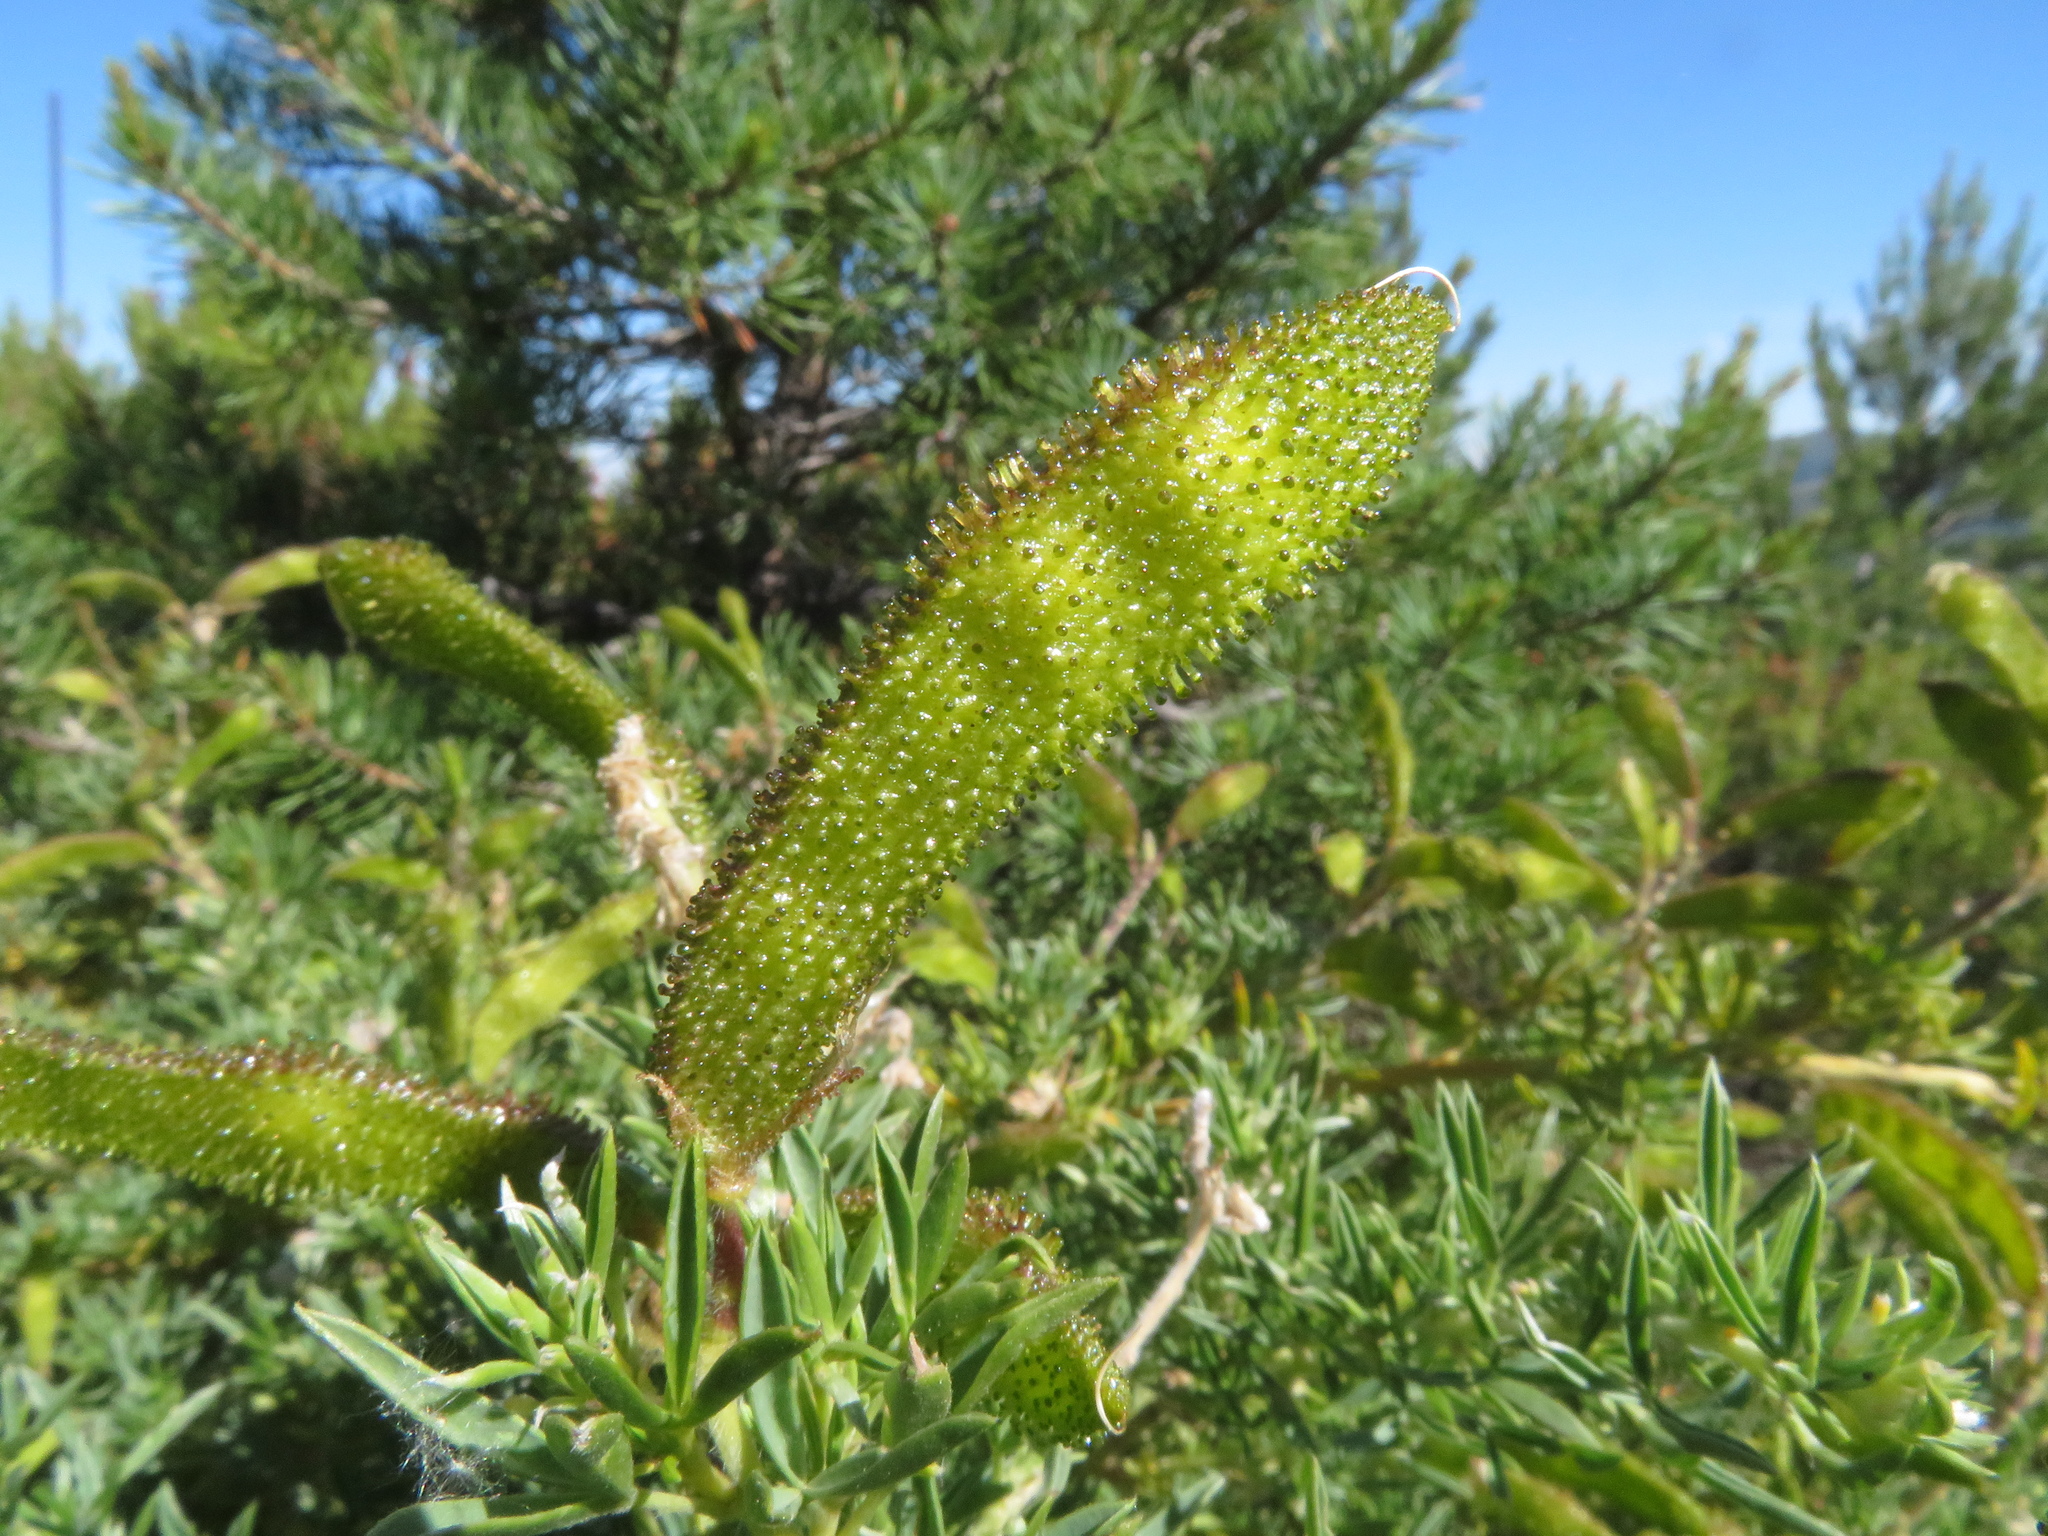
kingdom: Plantae
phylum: Tracheophyta
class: Magnoliopsida
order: Fabales
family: Fabaceae
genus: Adenocarpus
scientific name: Adenocarpus hispanicus
